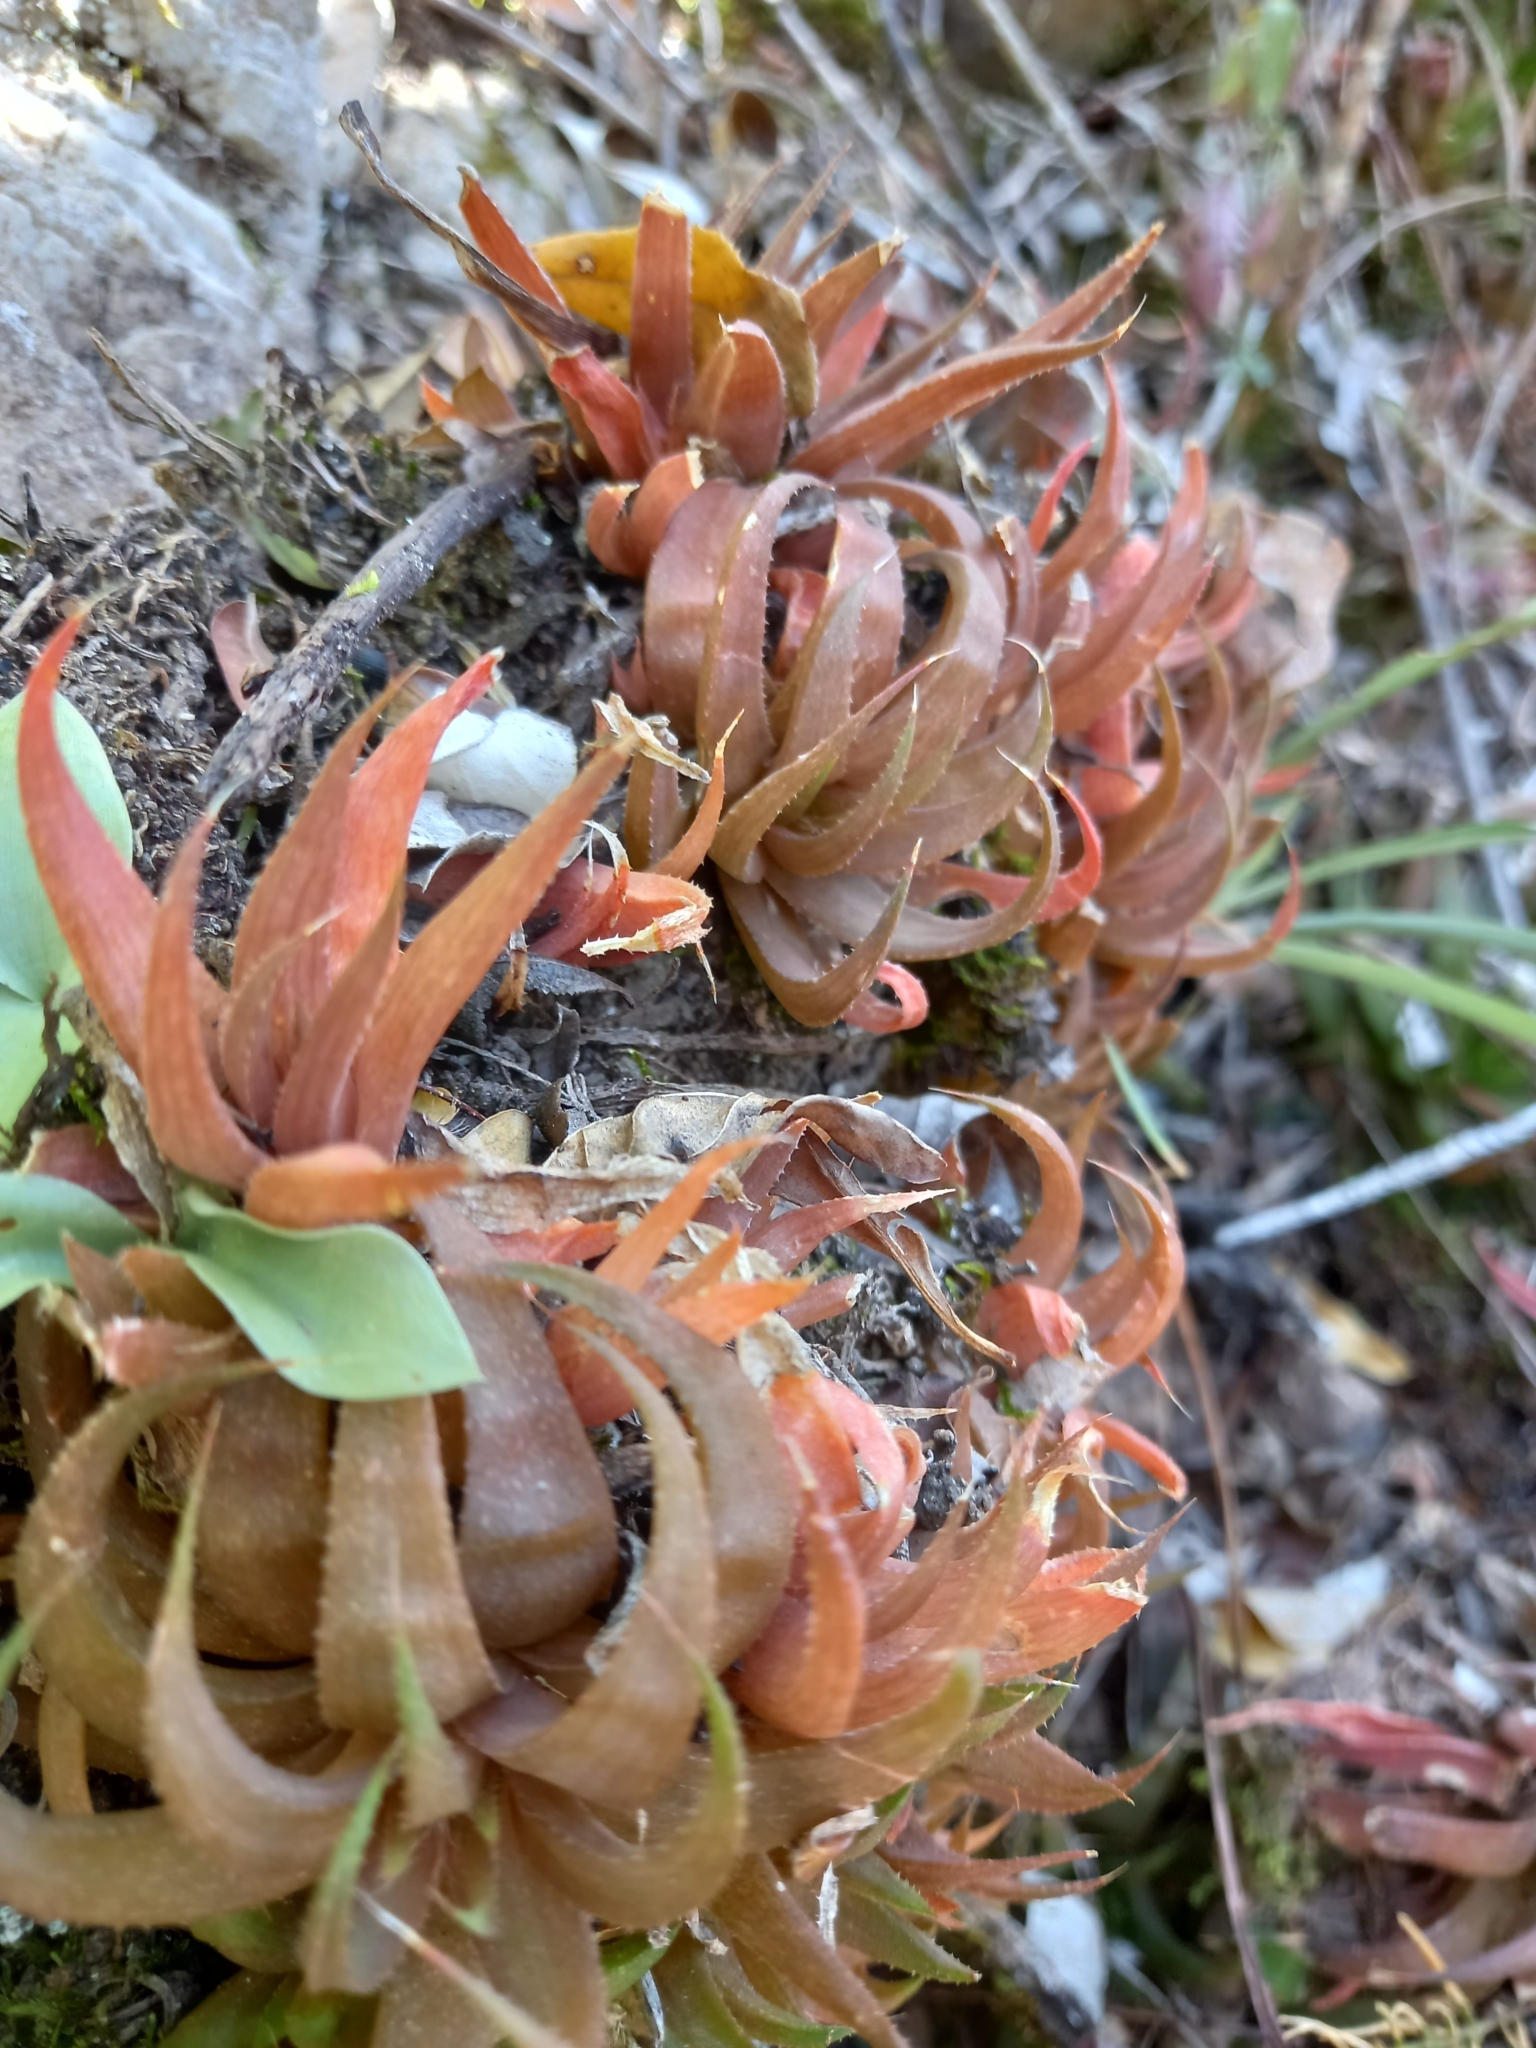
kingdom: Plantae
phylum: Tracheophyta
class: Liliopsida
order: Asparagales
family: Asphodelaceae
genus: Haworthia
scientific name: Haworthia angustifolia
